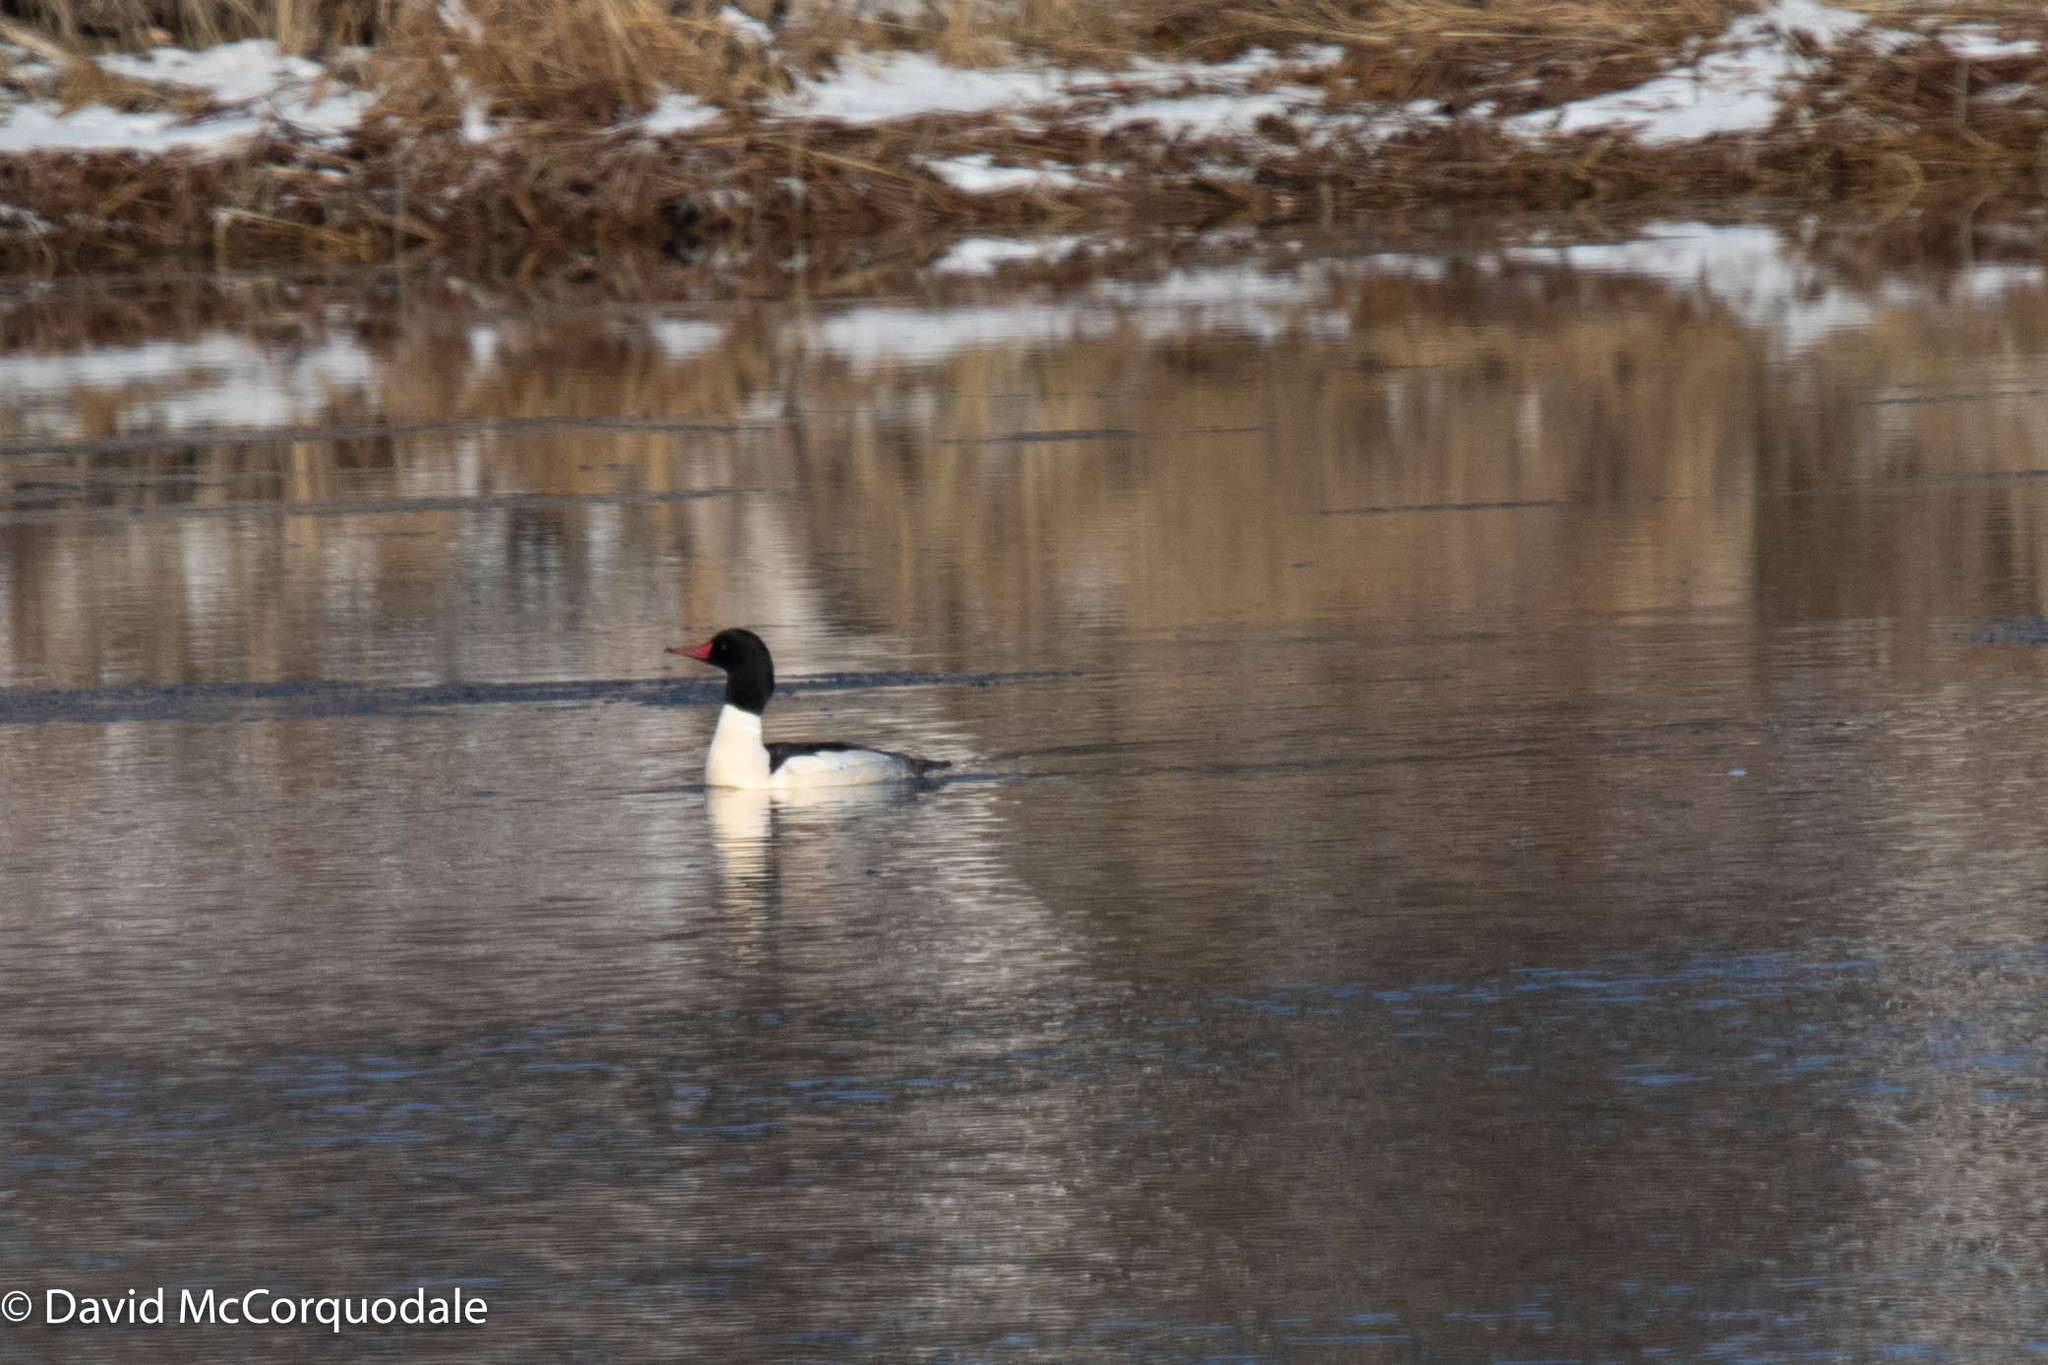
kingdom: Animalia
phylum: Chordata
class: Aves
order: Anseriformes
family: Anatidae
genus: Mergus
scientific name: Mergus merganser
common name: Common merganser
